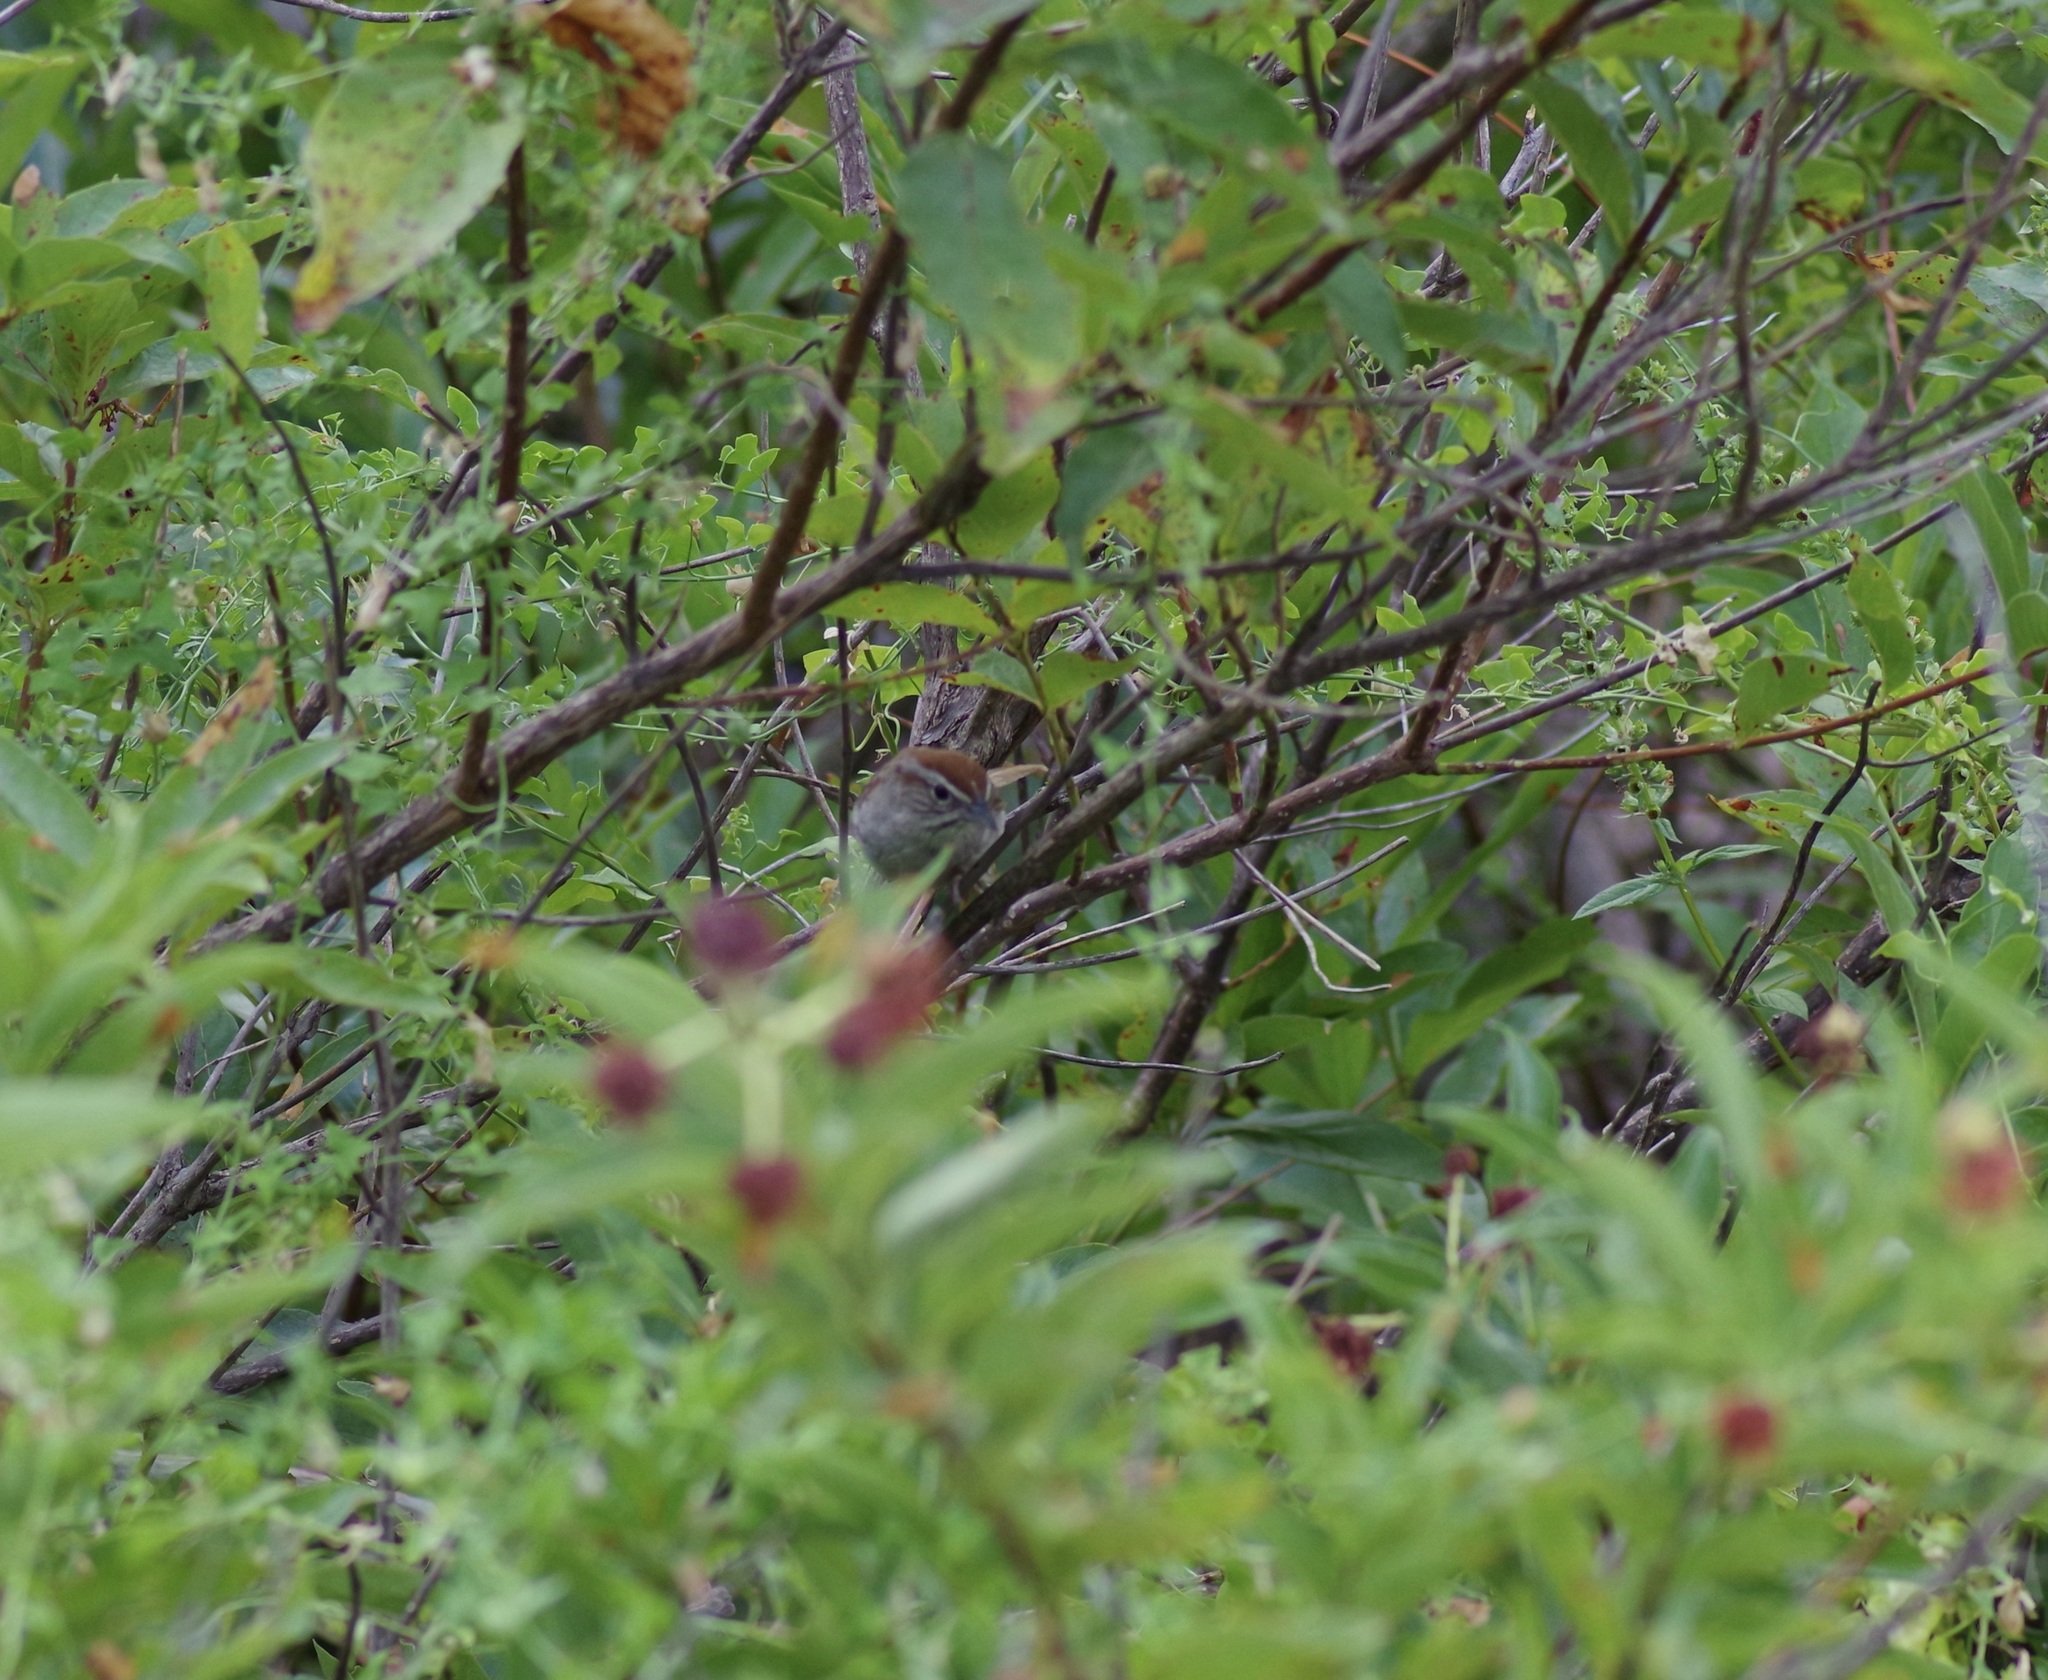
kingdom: Animalia
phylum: Chordata
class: Aves
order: Passeriformes
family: Passerellidae
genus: Aimophila
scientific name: Aimophila ruficeps
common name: Rufous-crowned sparrow
